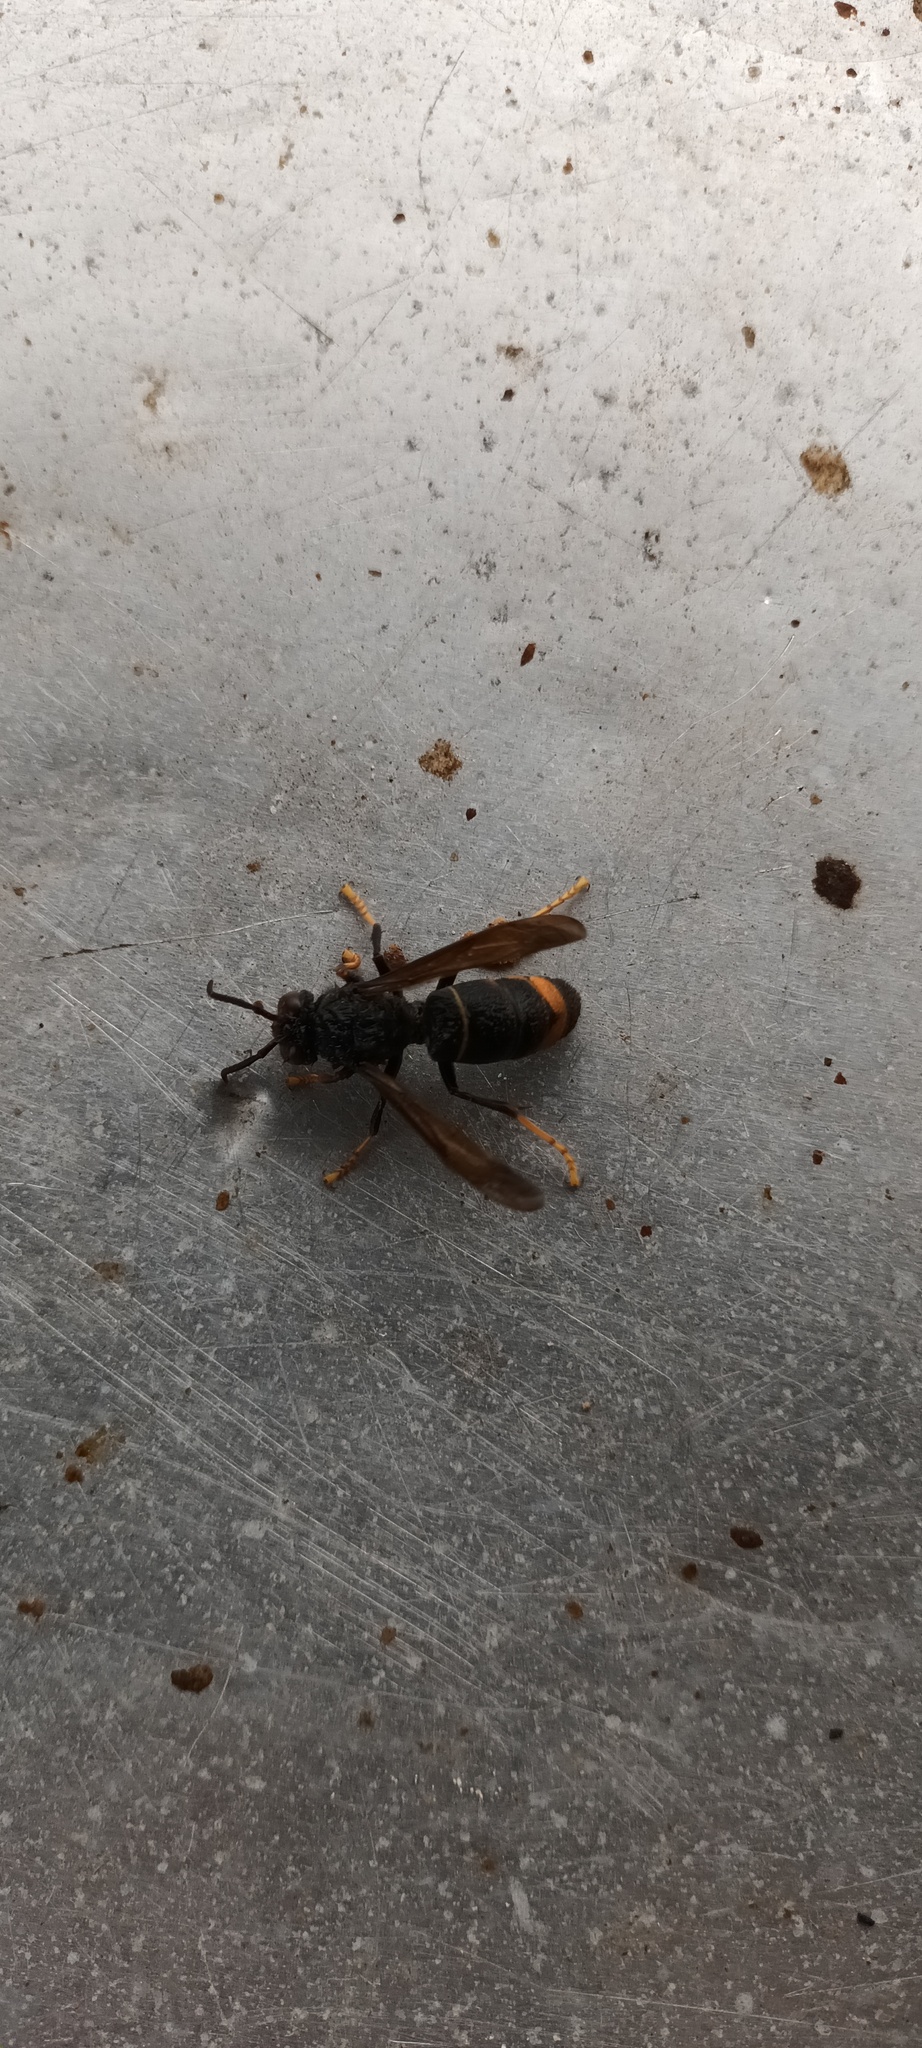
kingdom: Animalia
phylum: Arthropoda
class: Insecta
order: Hymenoptera
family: Vespidae
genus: Vespa
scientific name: Vespa velutina
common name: Asian hornet
